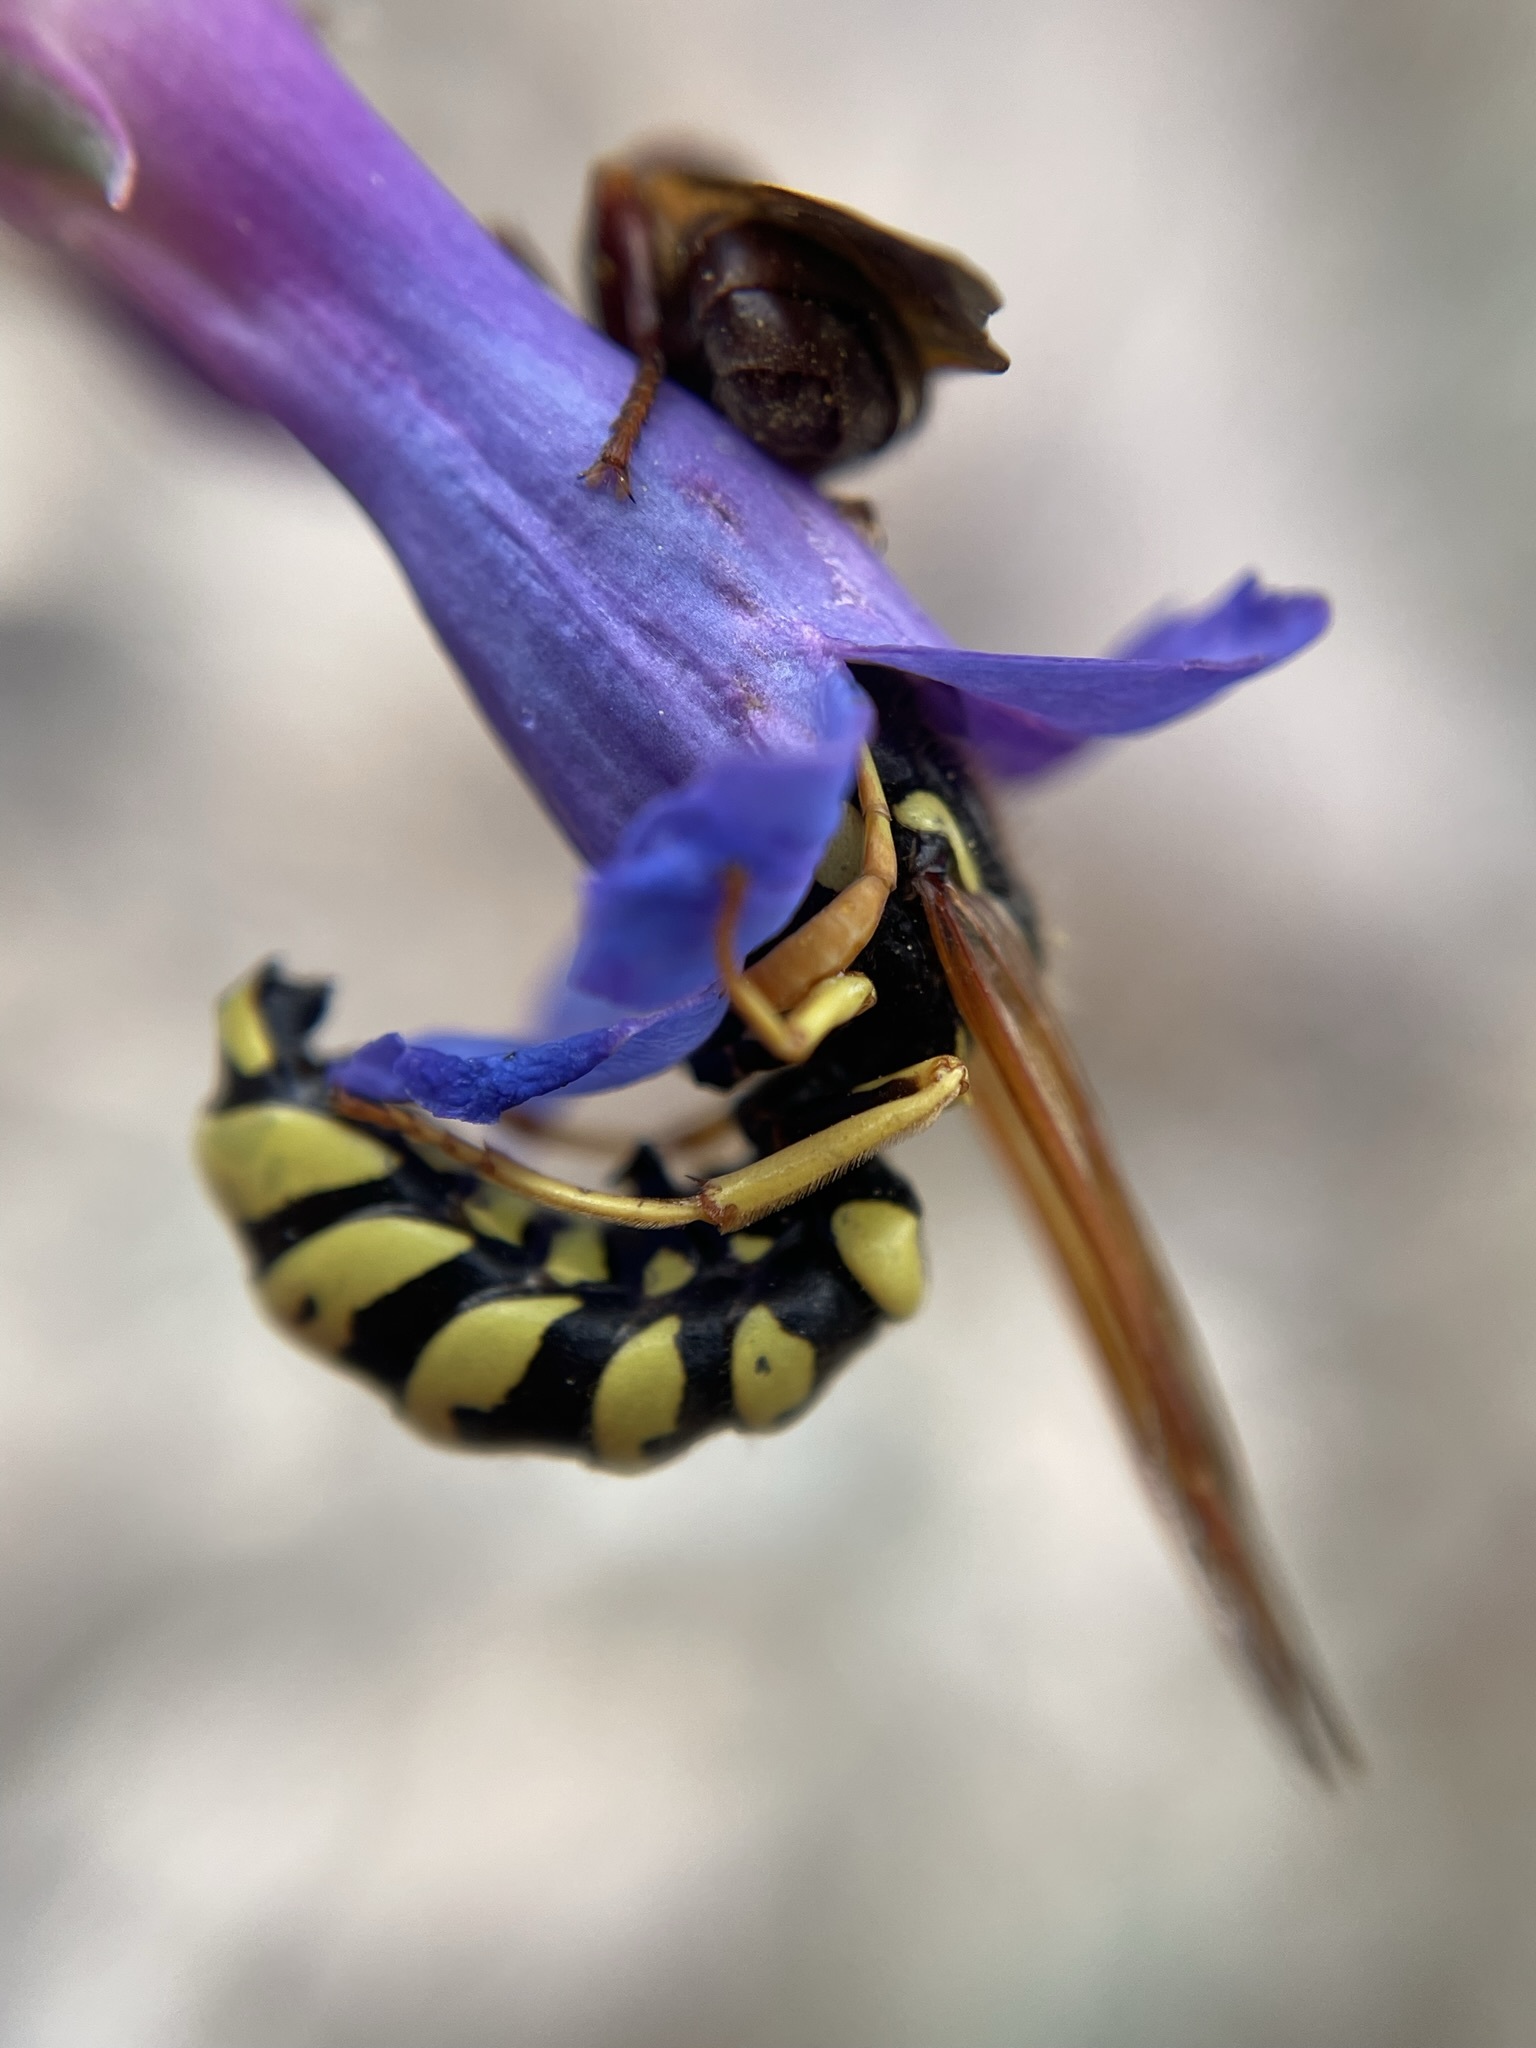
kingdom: Animalia
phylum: Arthropoda
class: Insecta
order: Hymenoptera
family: Masaridae
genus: Pseudomasaris
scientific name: Pseudomasaris vespoides
